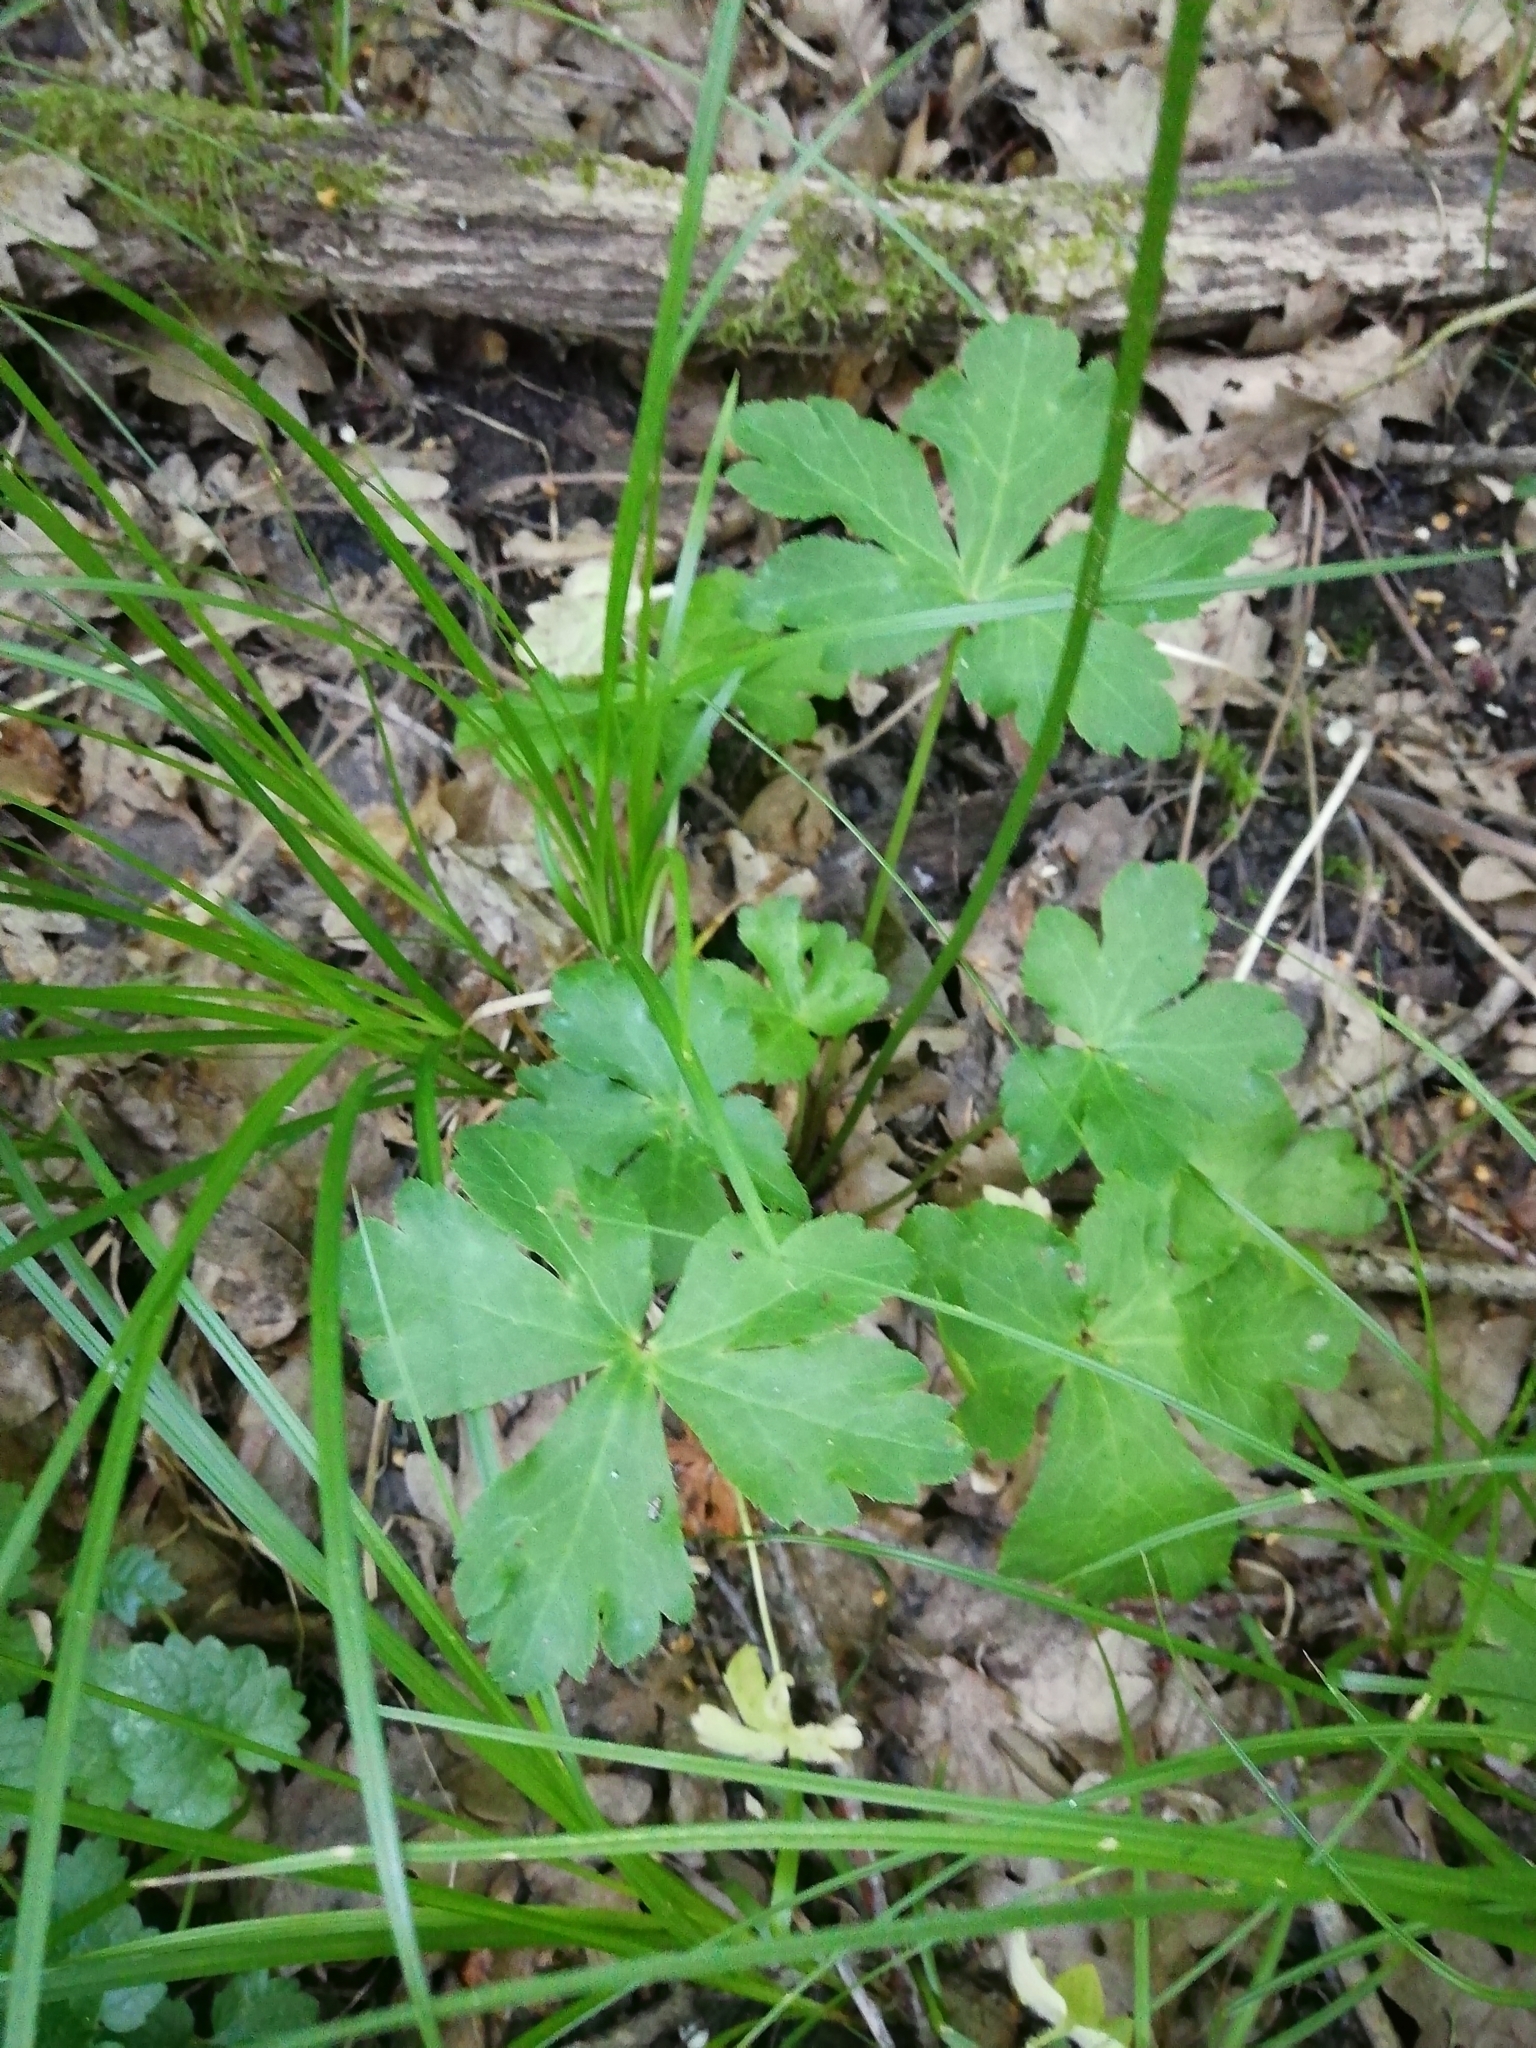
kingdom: Plantae
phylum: Tracheophyta
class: Magnoliopsida
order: Apiales
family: Apiaceae
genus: Sanicula
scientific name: Sanicula europaea
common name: Sanicle
